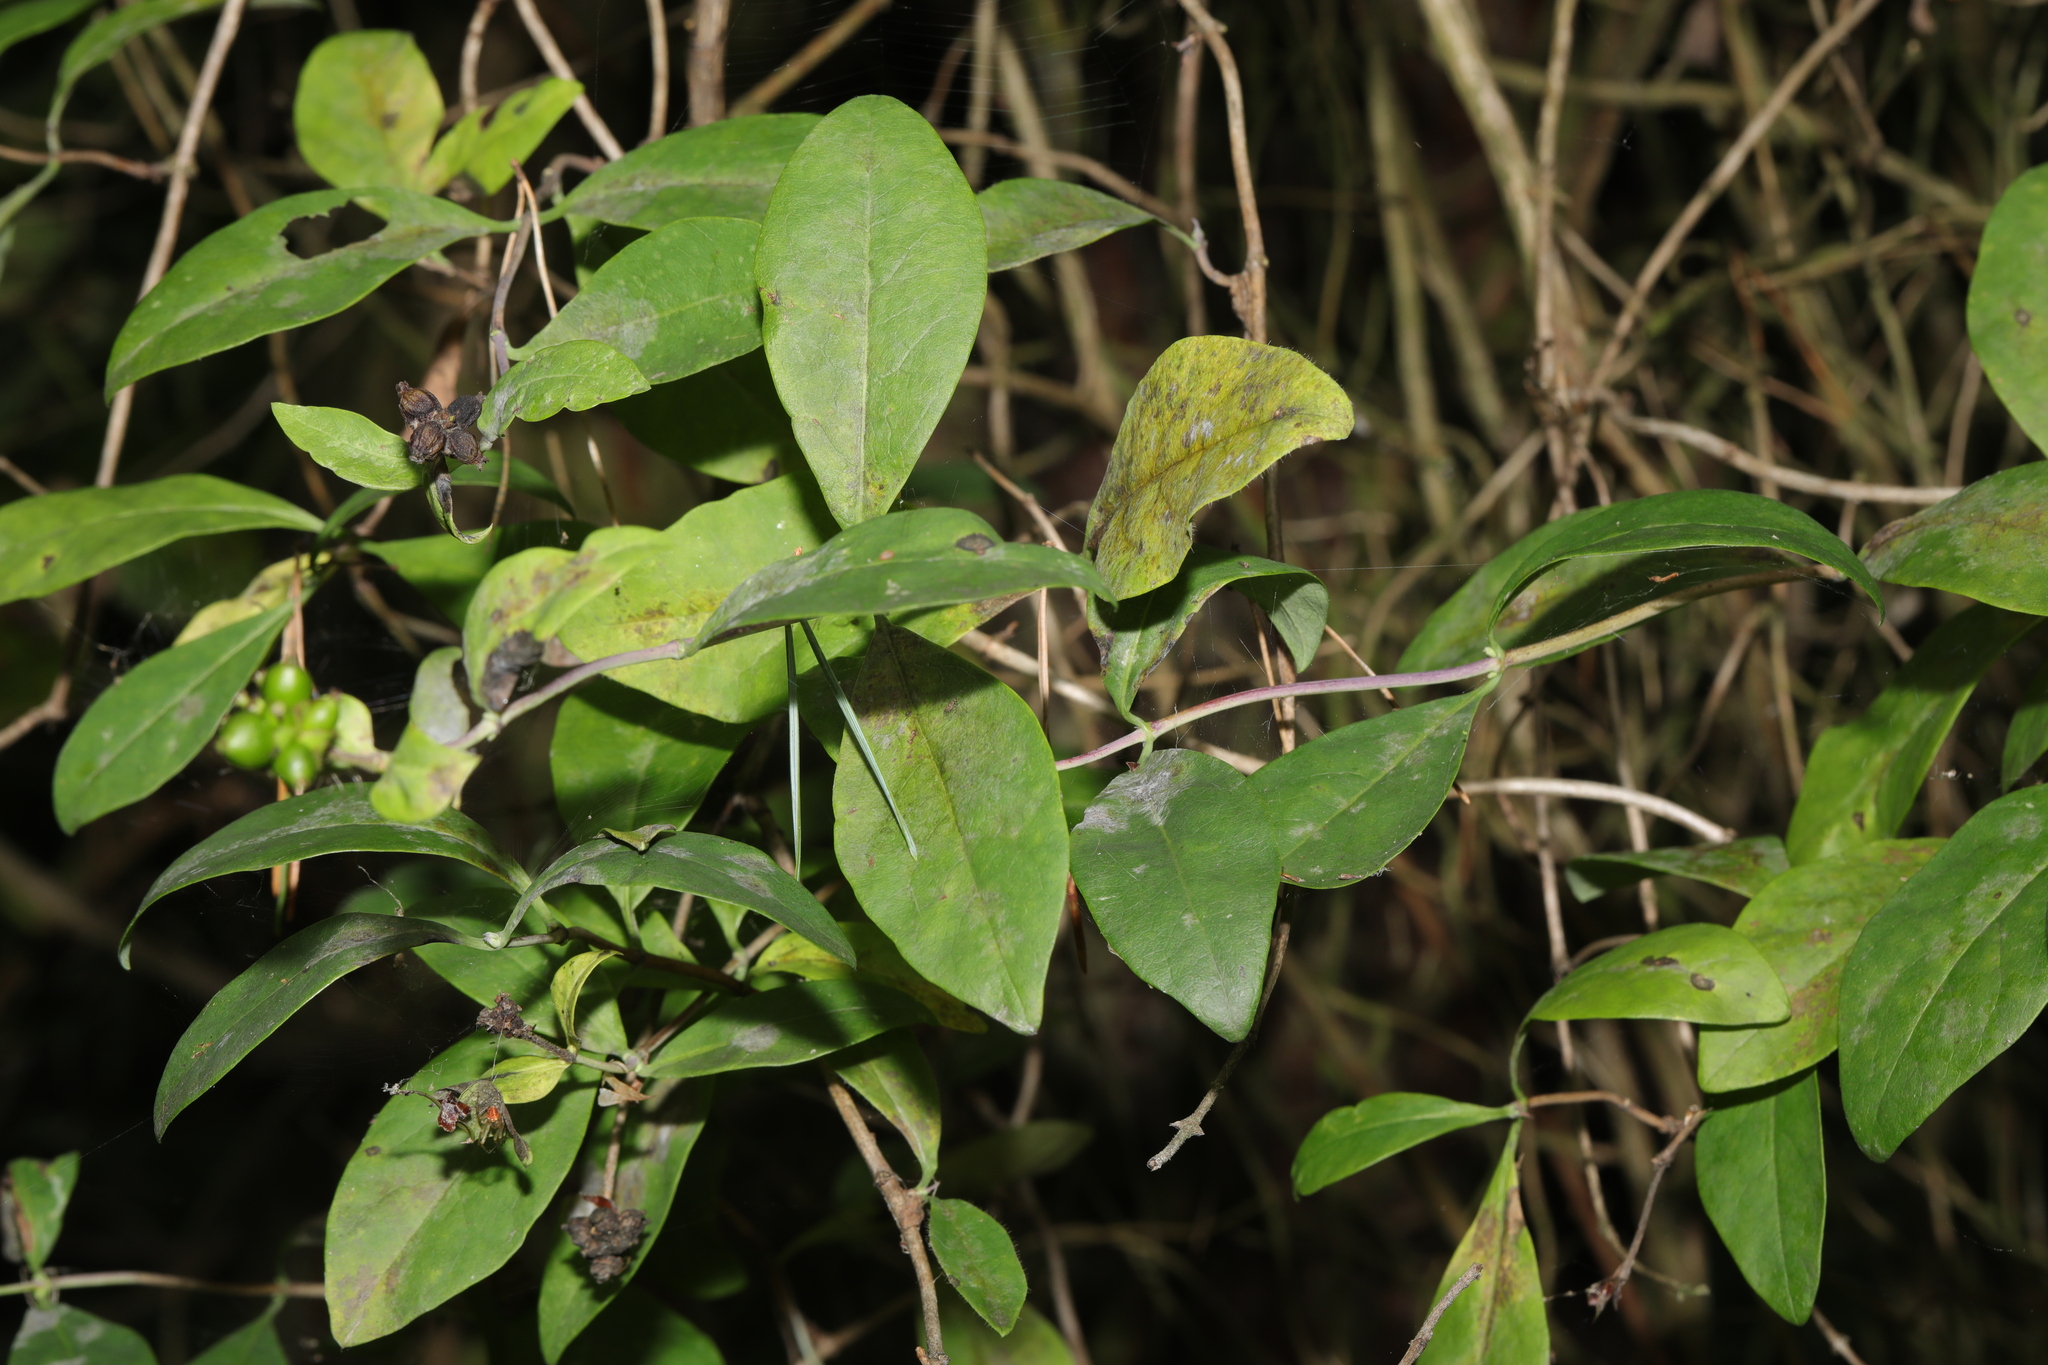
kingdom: Plantae
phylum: Tracheophyta
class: Magnoliopsida
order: Dipsacales
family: Caprifoliaceae
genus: Lonicera
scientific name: Lonicera periclymenum
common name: European honeysuckle
